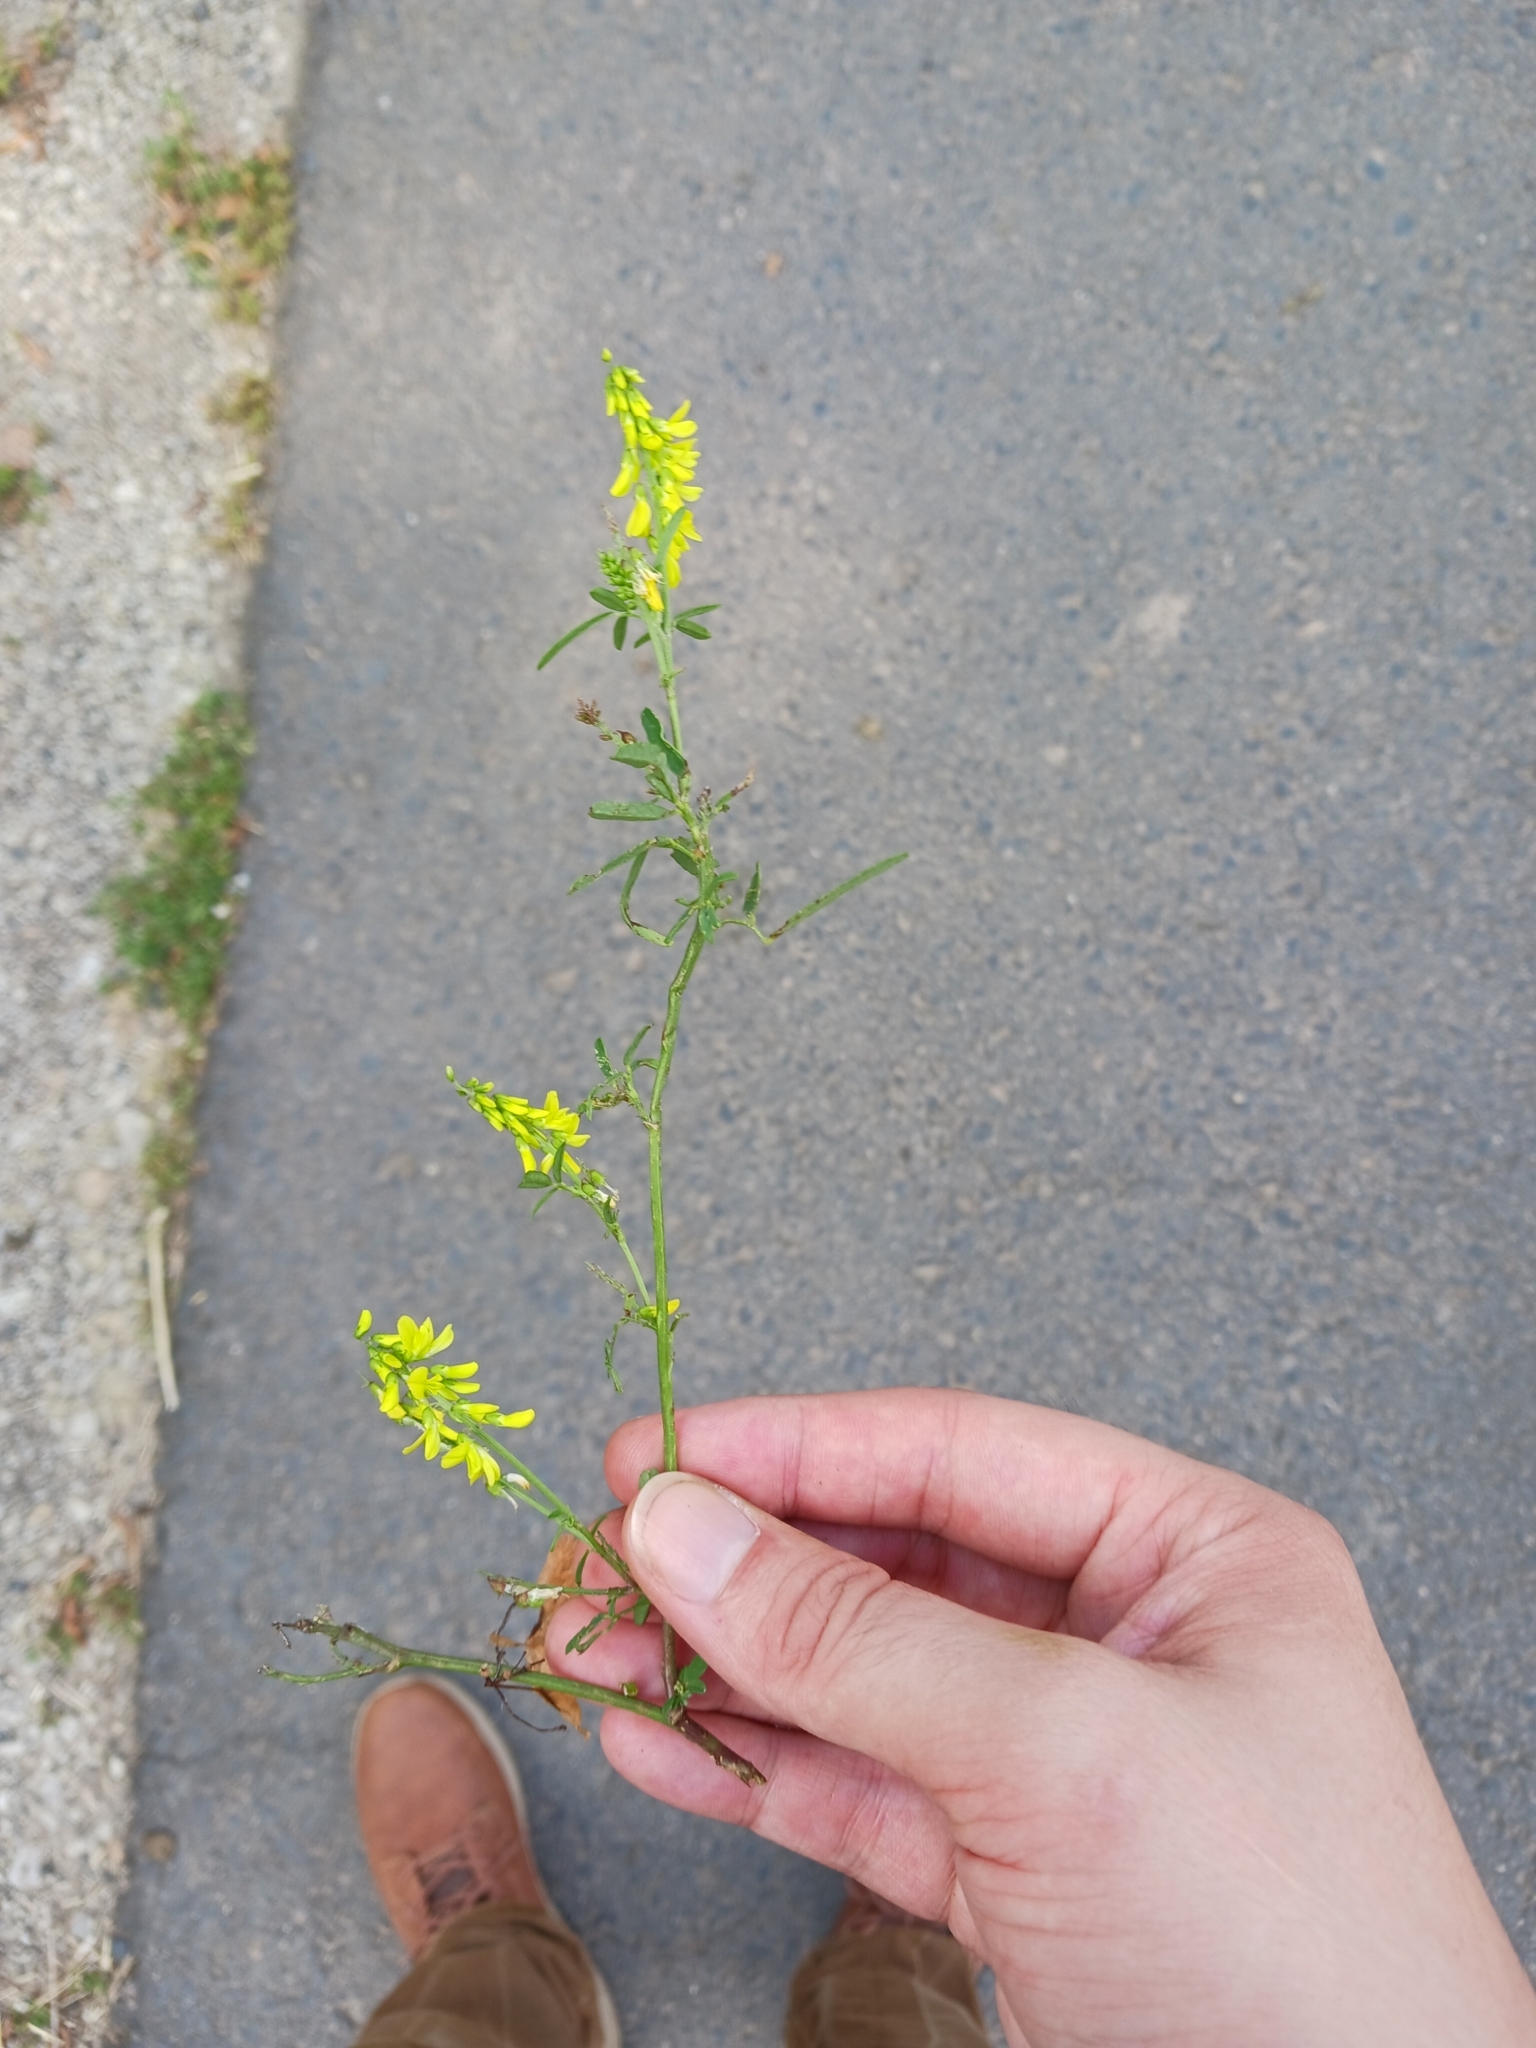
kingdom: Plantae
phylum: Tracheophyta
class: Magnoliopsida
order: Fabales
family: Fabaceae
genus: Melilotus
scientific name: Melilotus officinalis
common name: Sweetclover
